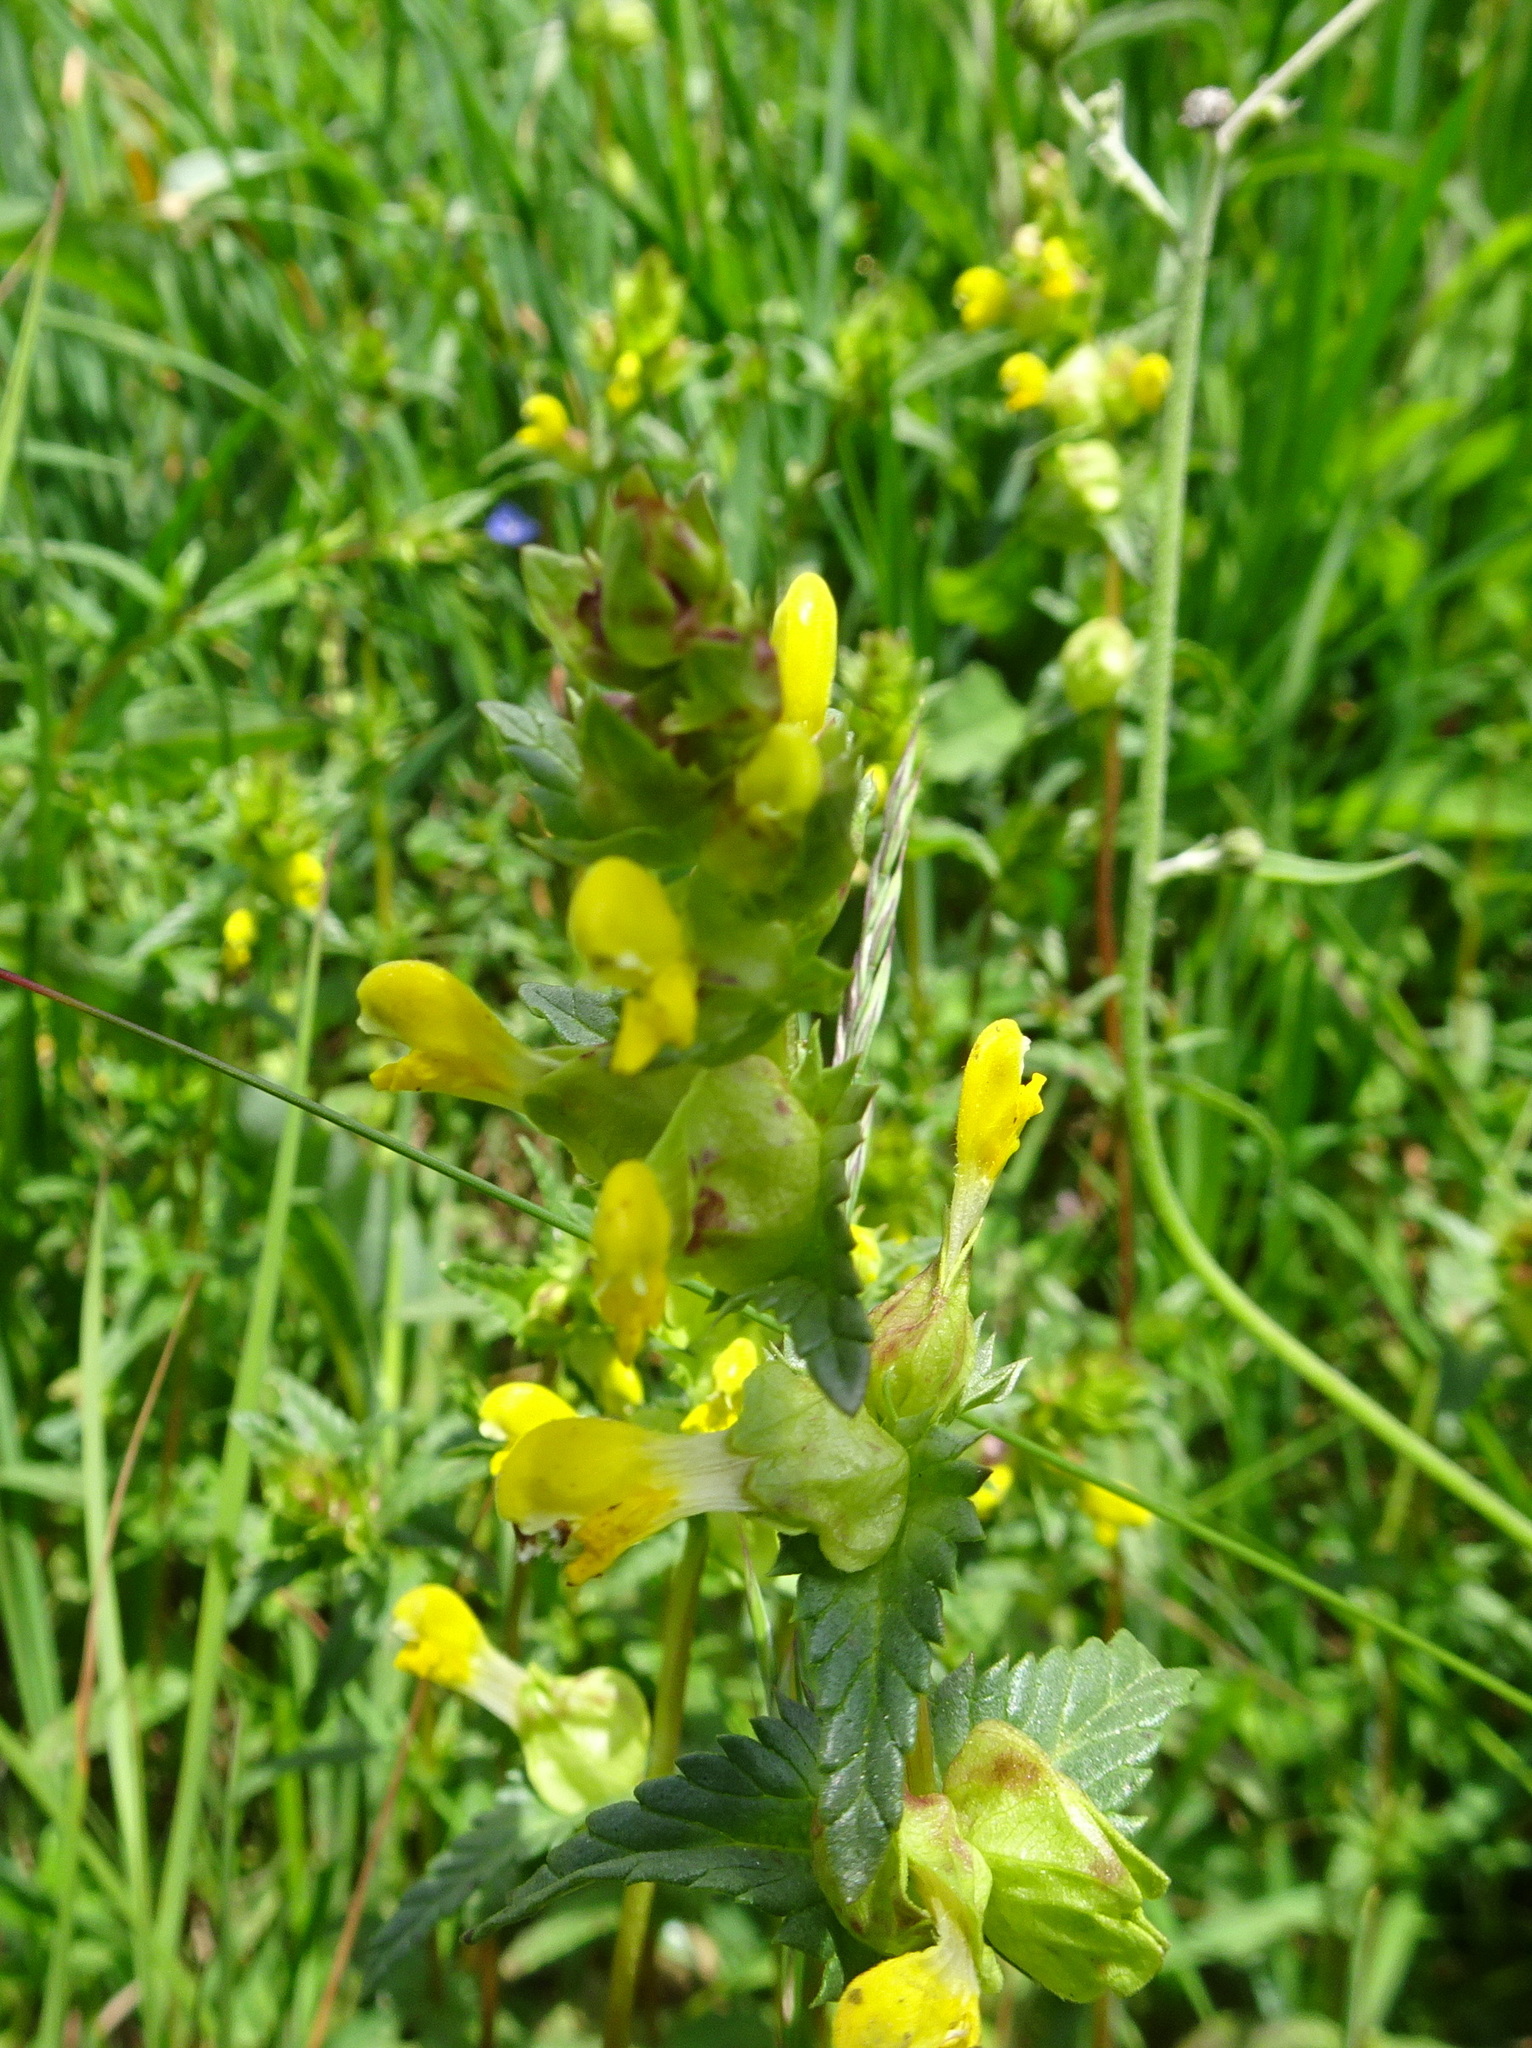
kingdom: Plantae
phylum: Tracheophyta
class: Magnoliopsida
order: Lamiales
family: Orobanchaceae
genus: Rhinanthus
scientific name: Rhinanthus minor
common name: Yellow-rattle
